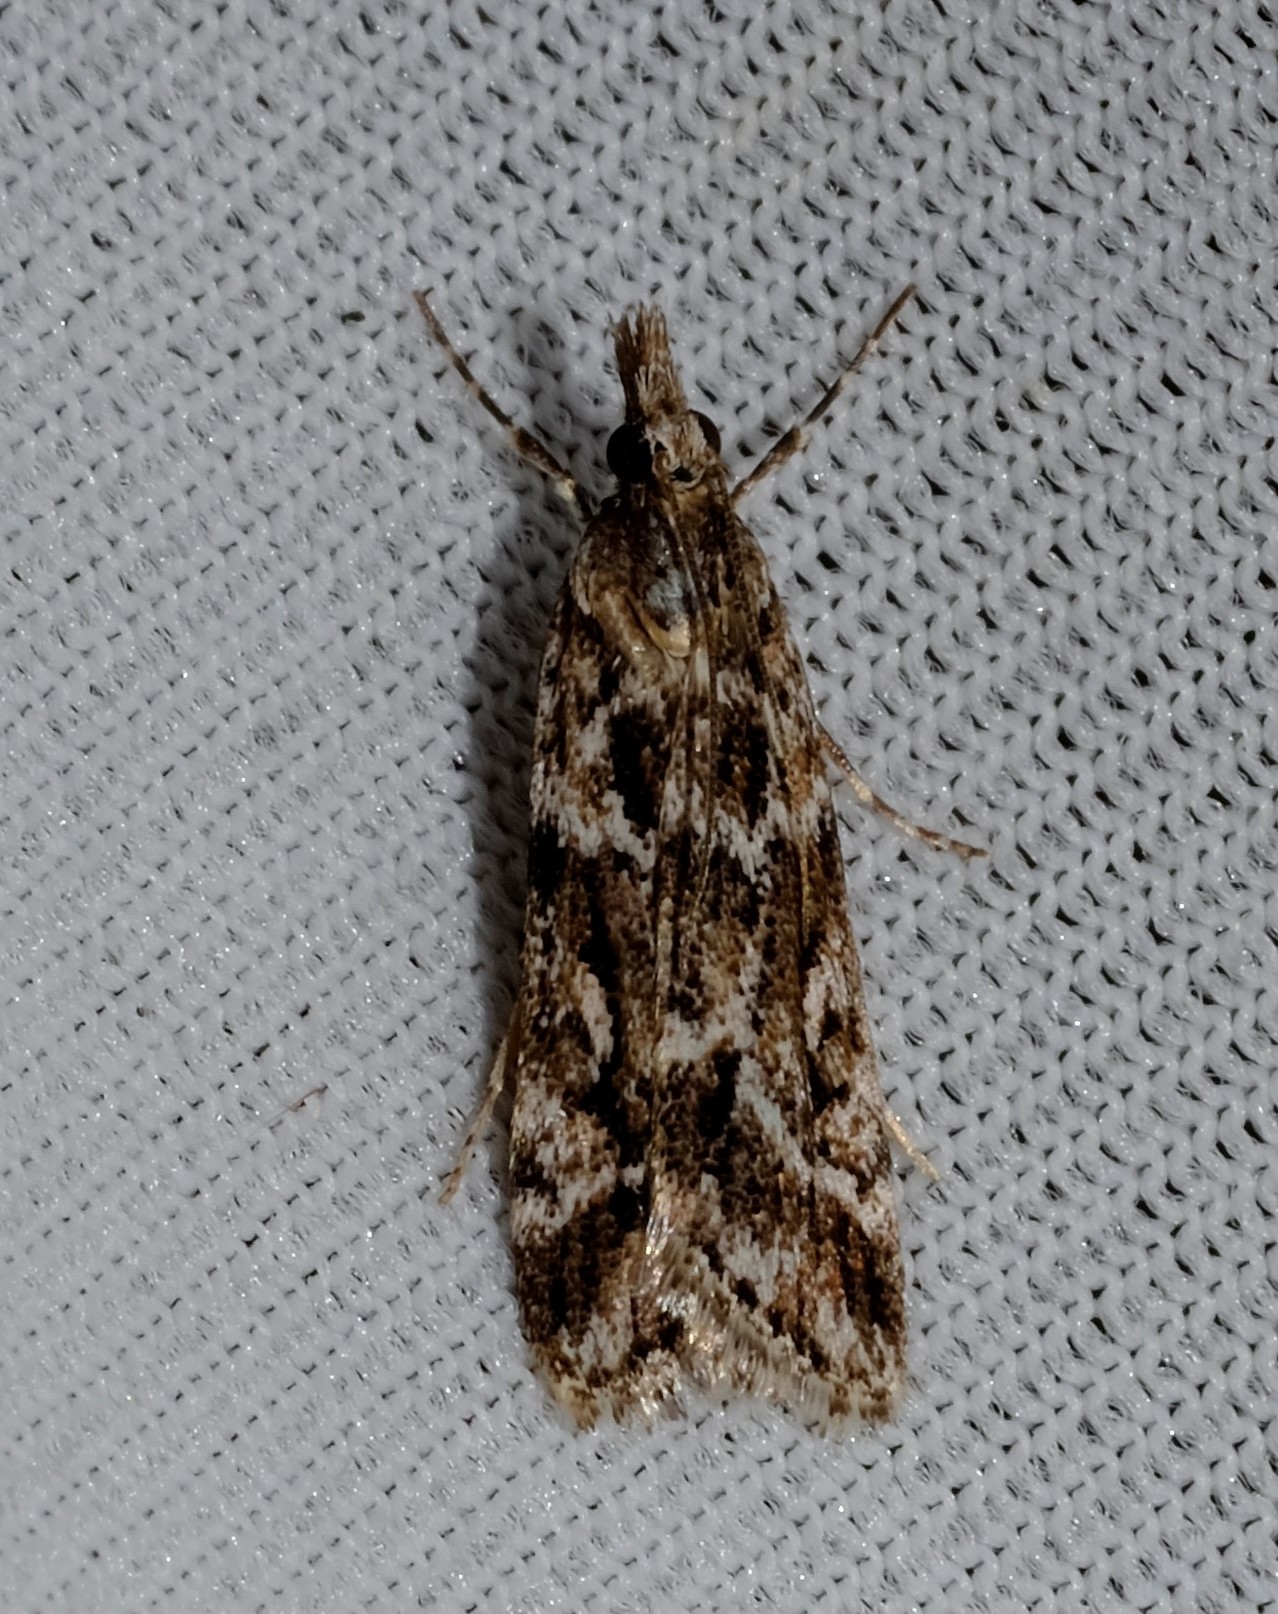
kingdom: Animalia
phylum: Arthropoda
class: Insecta
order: Lepidoptera
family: Crambidae
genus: Scoparia
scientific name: Scoparia oxygona
